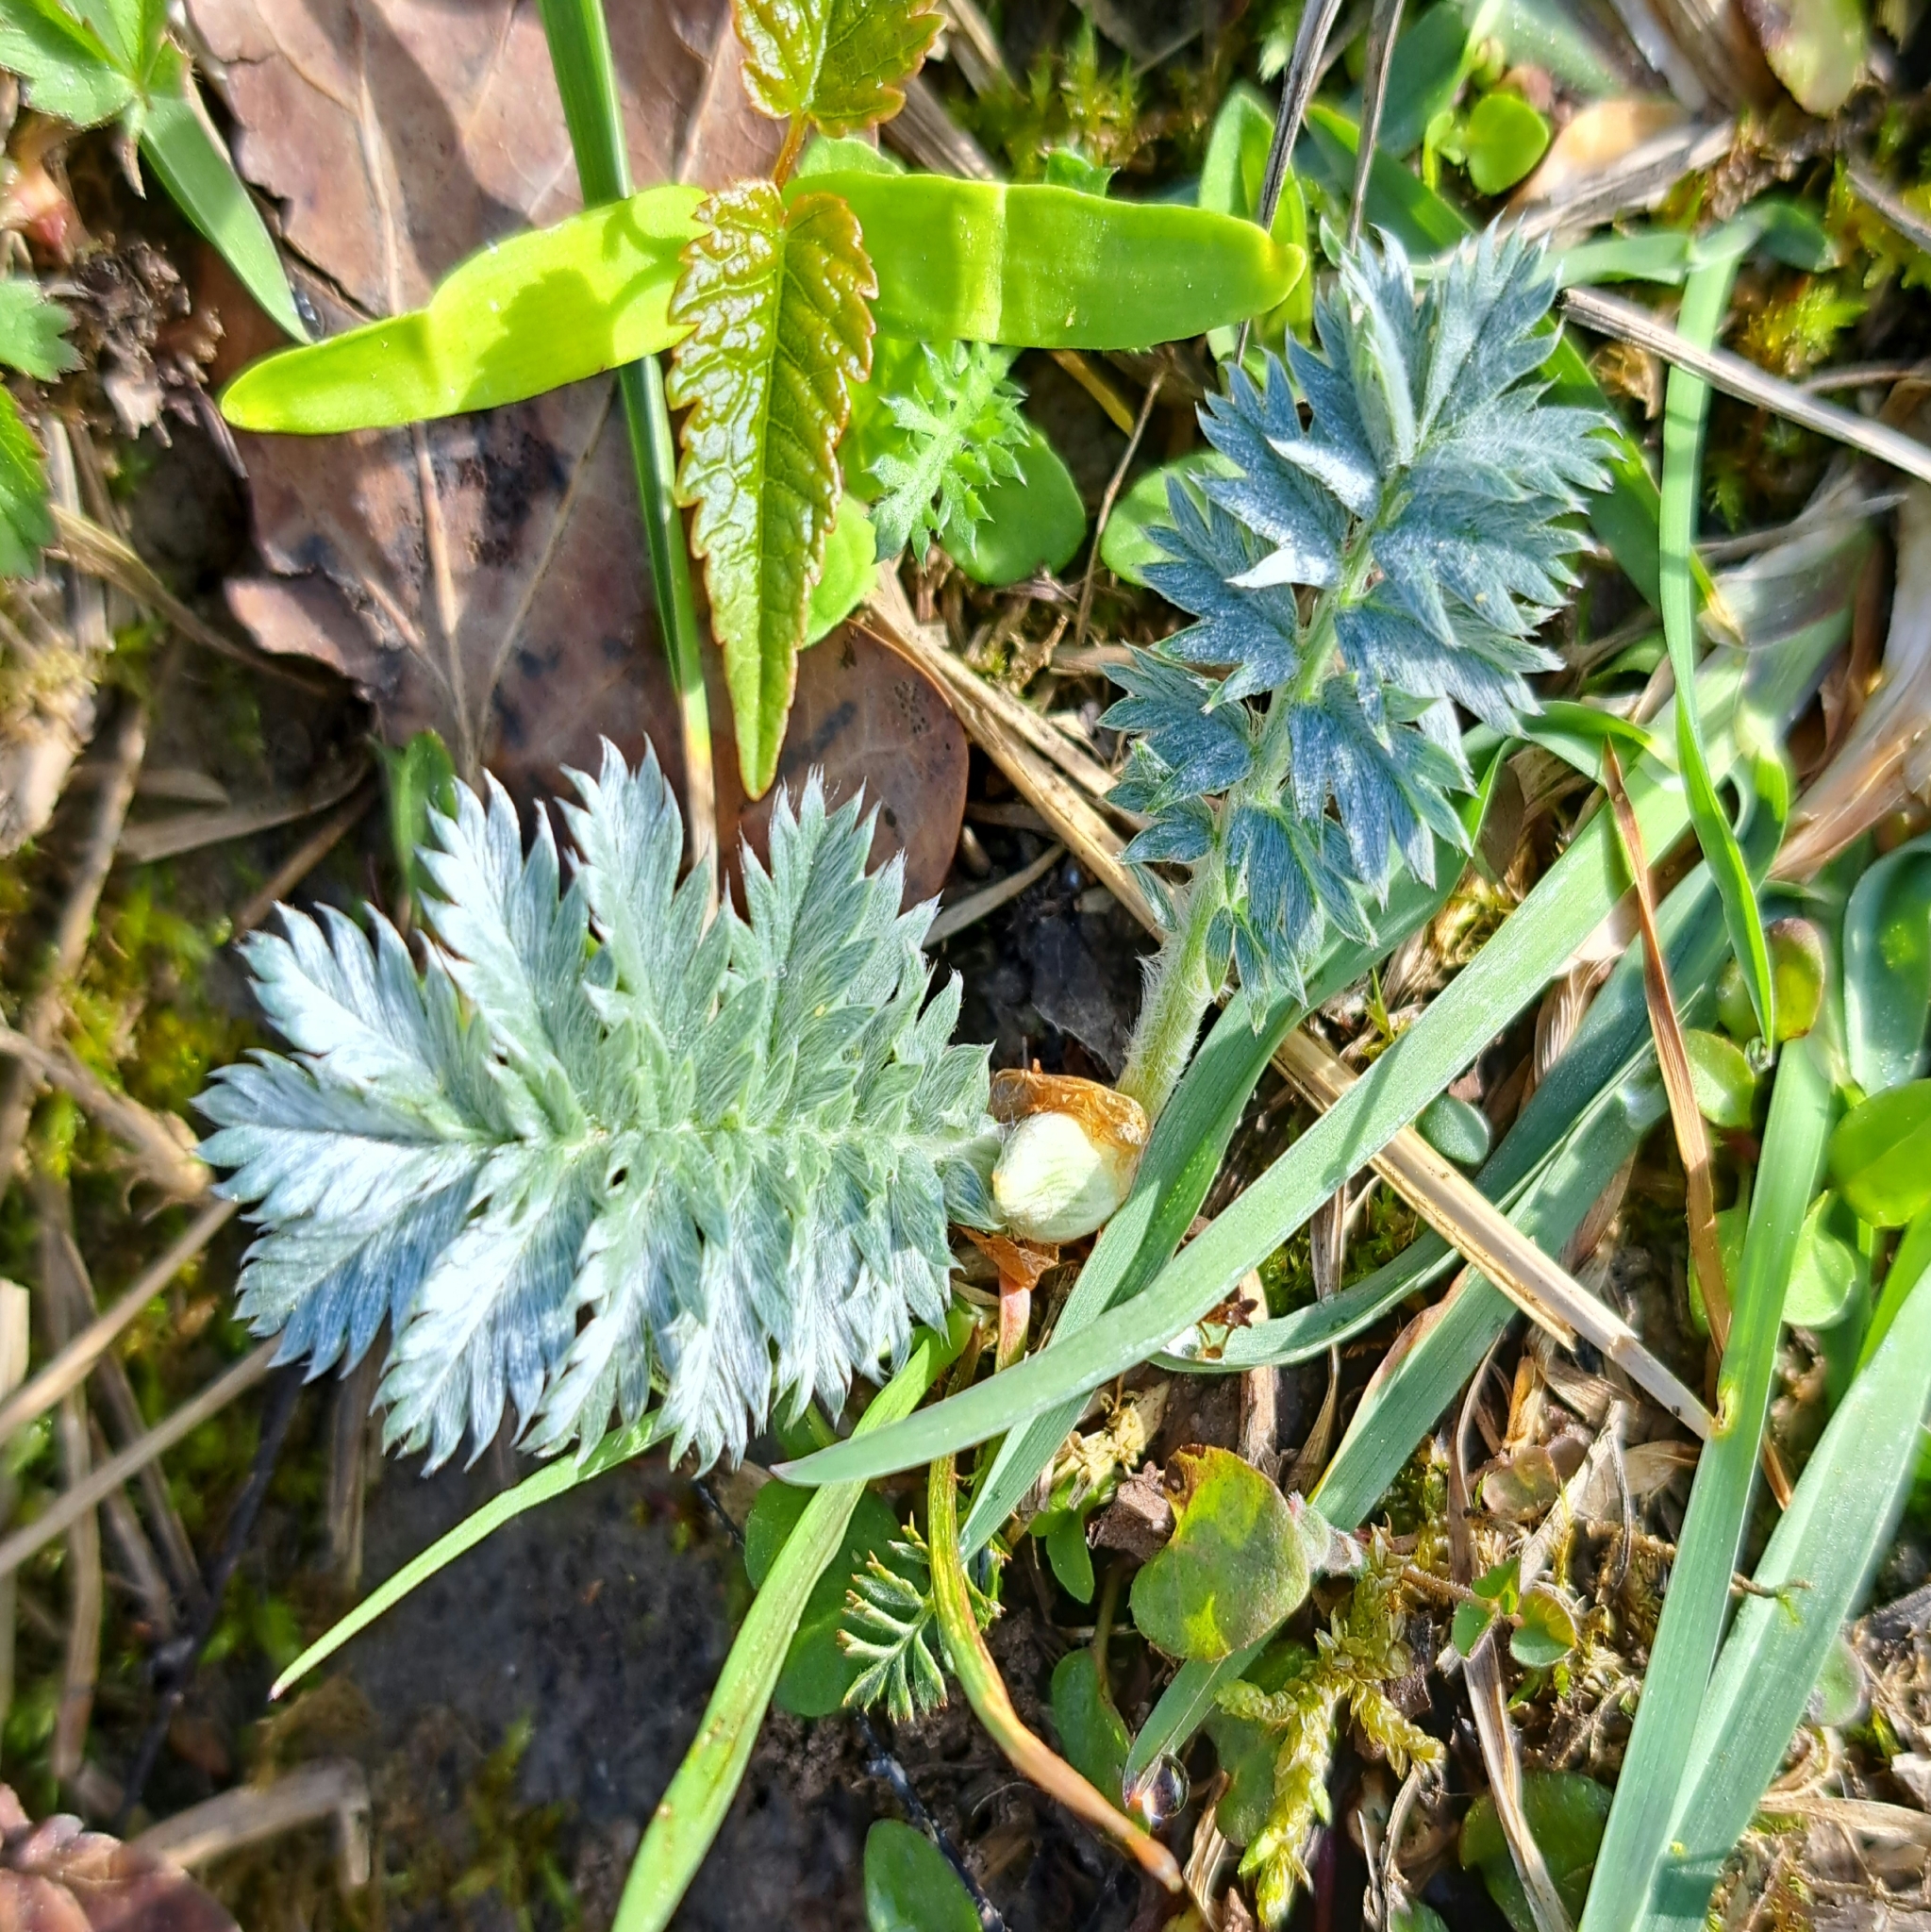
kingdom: Plantae
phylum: Tracheophyta
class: Magnoliopsida
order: Rosales
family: Rosaceae
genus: Argentina
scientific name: Argentina anserina
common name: Common silverweed
